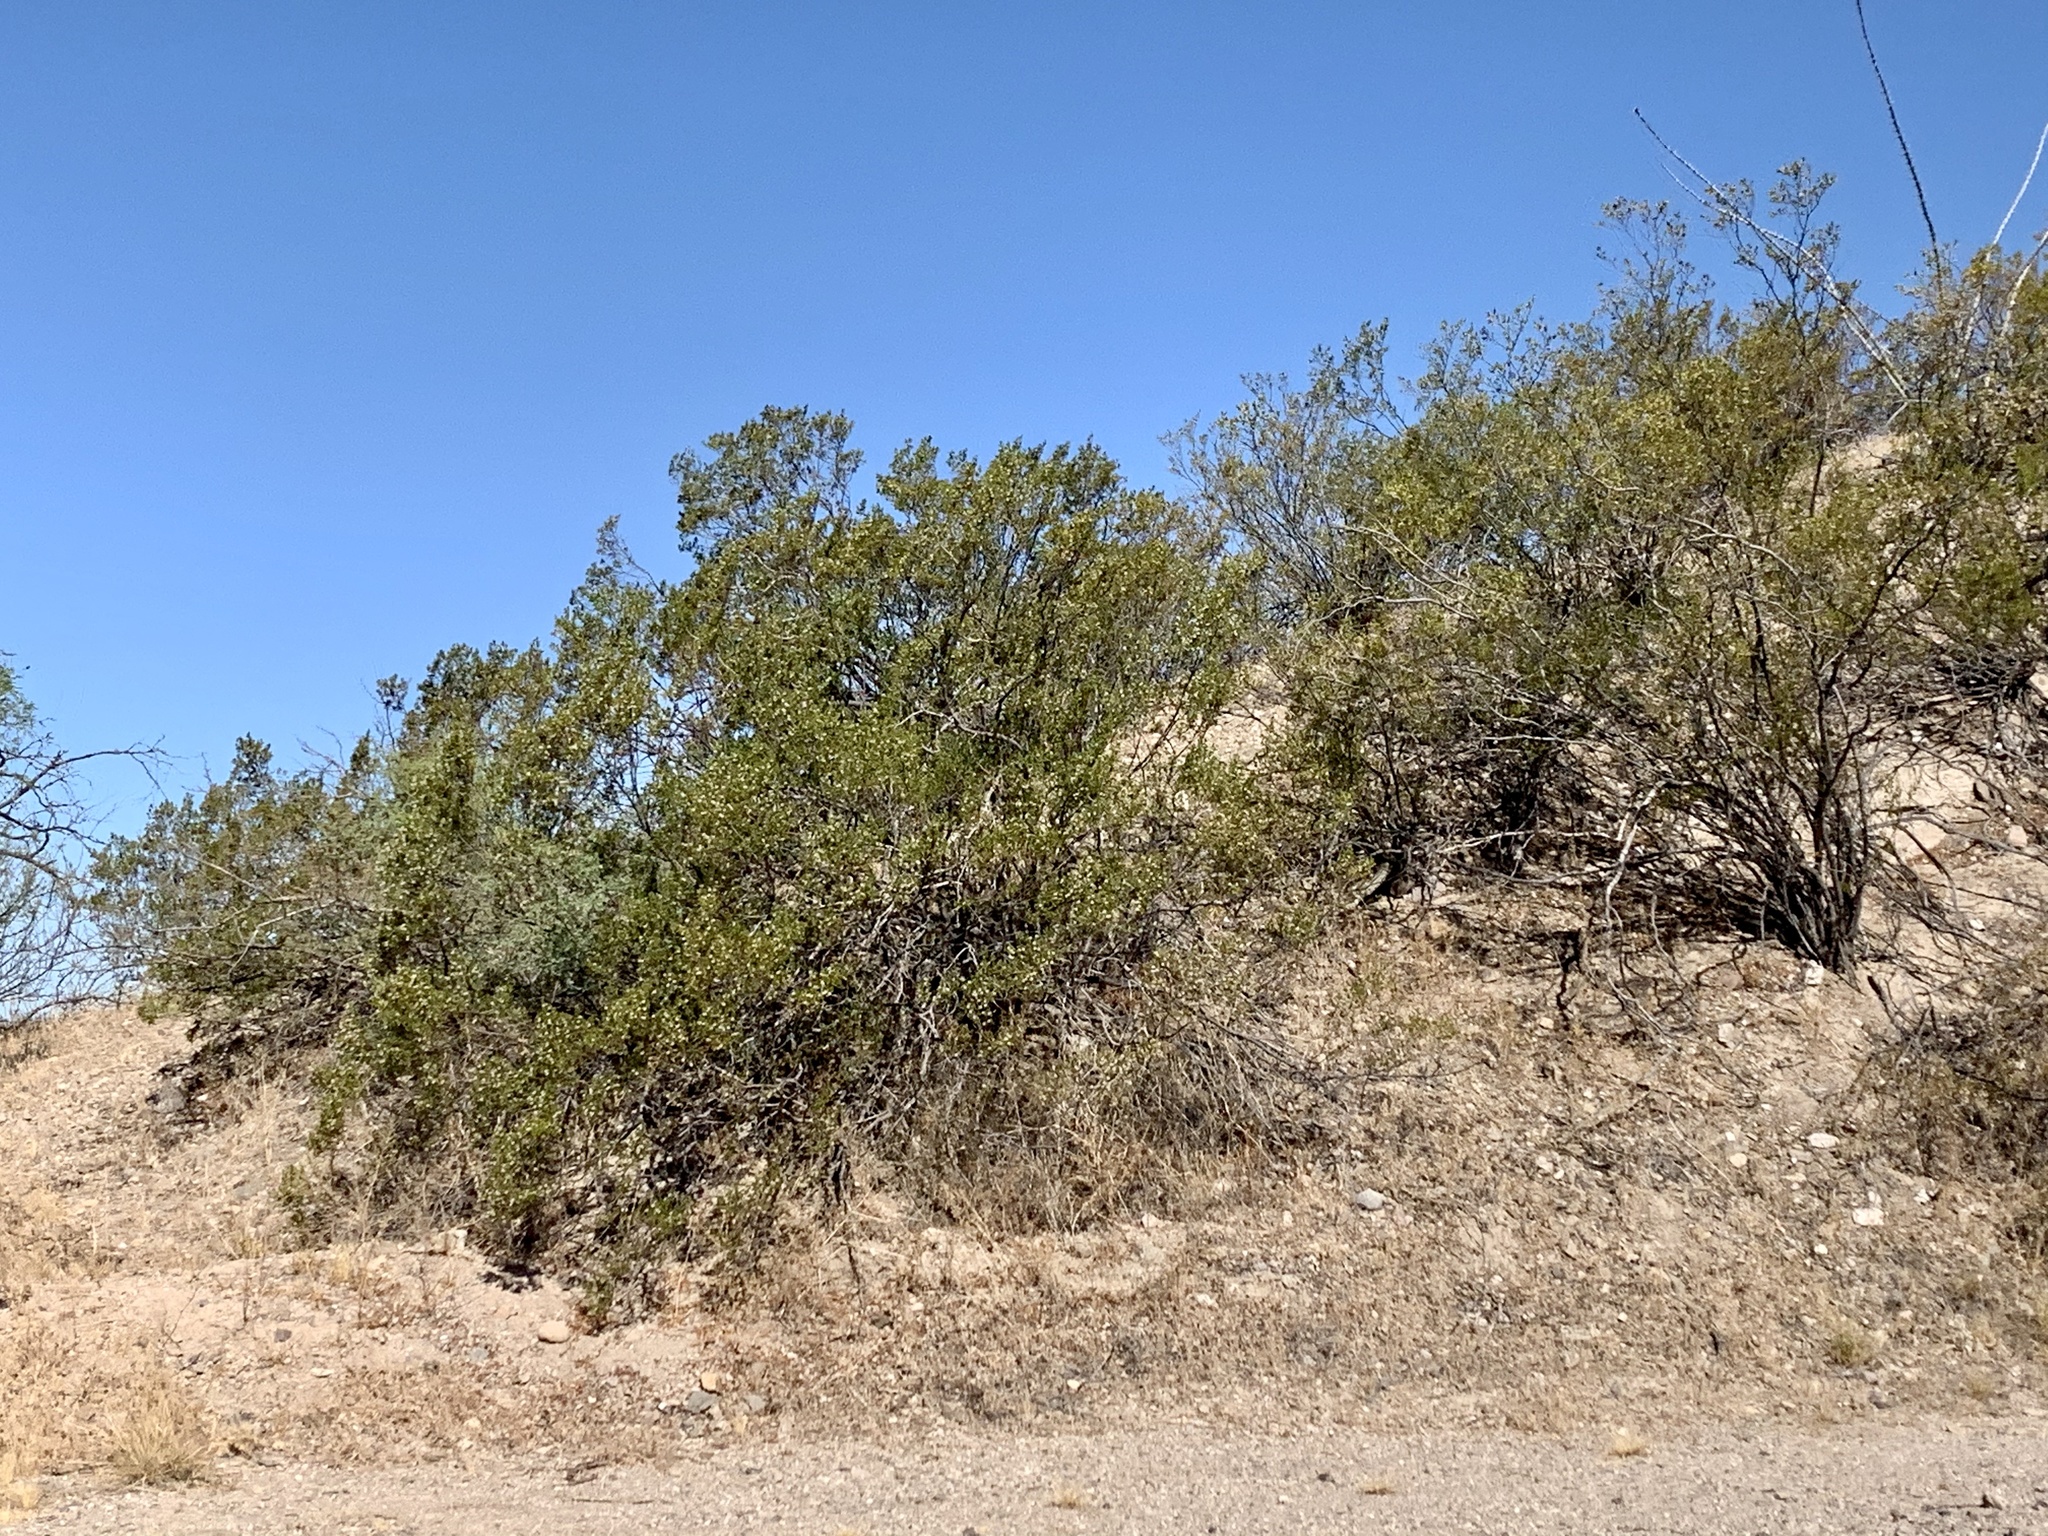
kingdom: Plantae
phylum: Tracheophyta
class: Magnoliopsida
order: Zygophyllales
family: Zygophyllaceae
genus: Larrea
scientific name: Larrea tridentata
